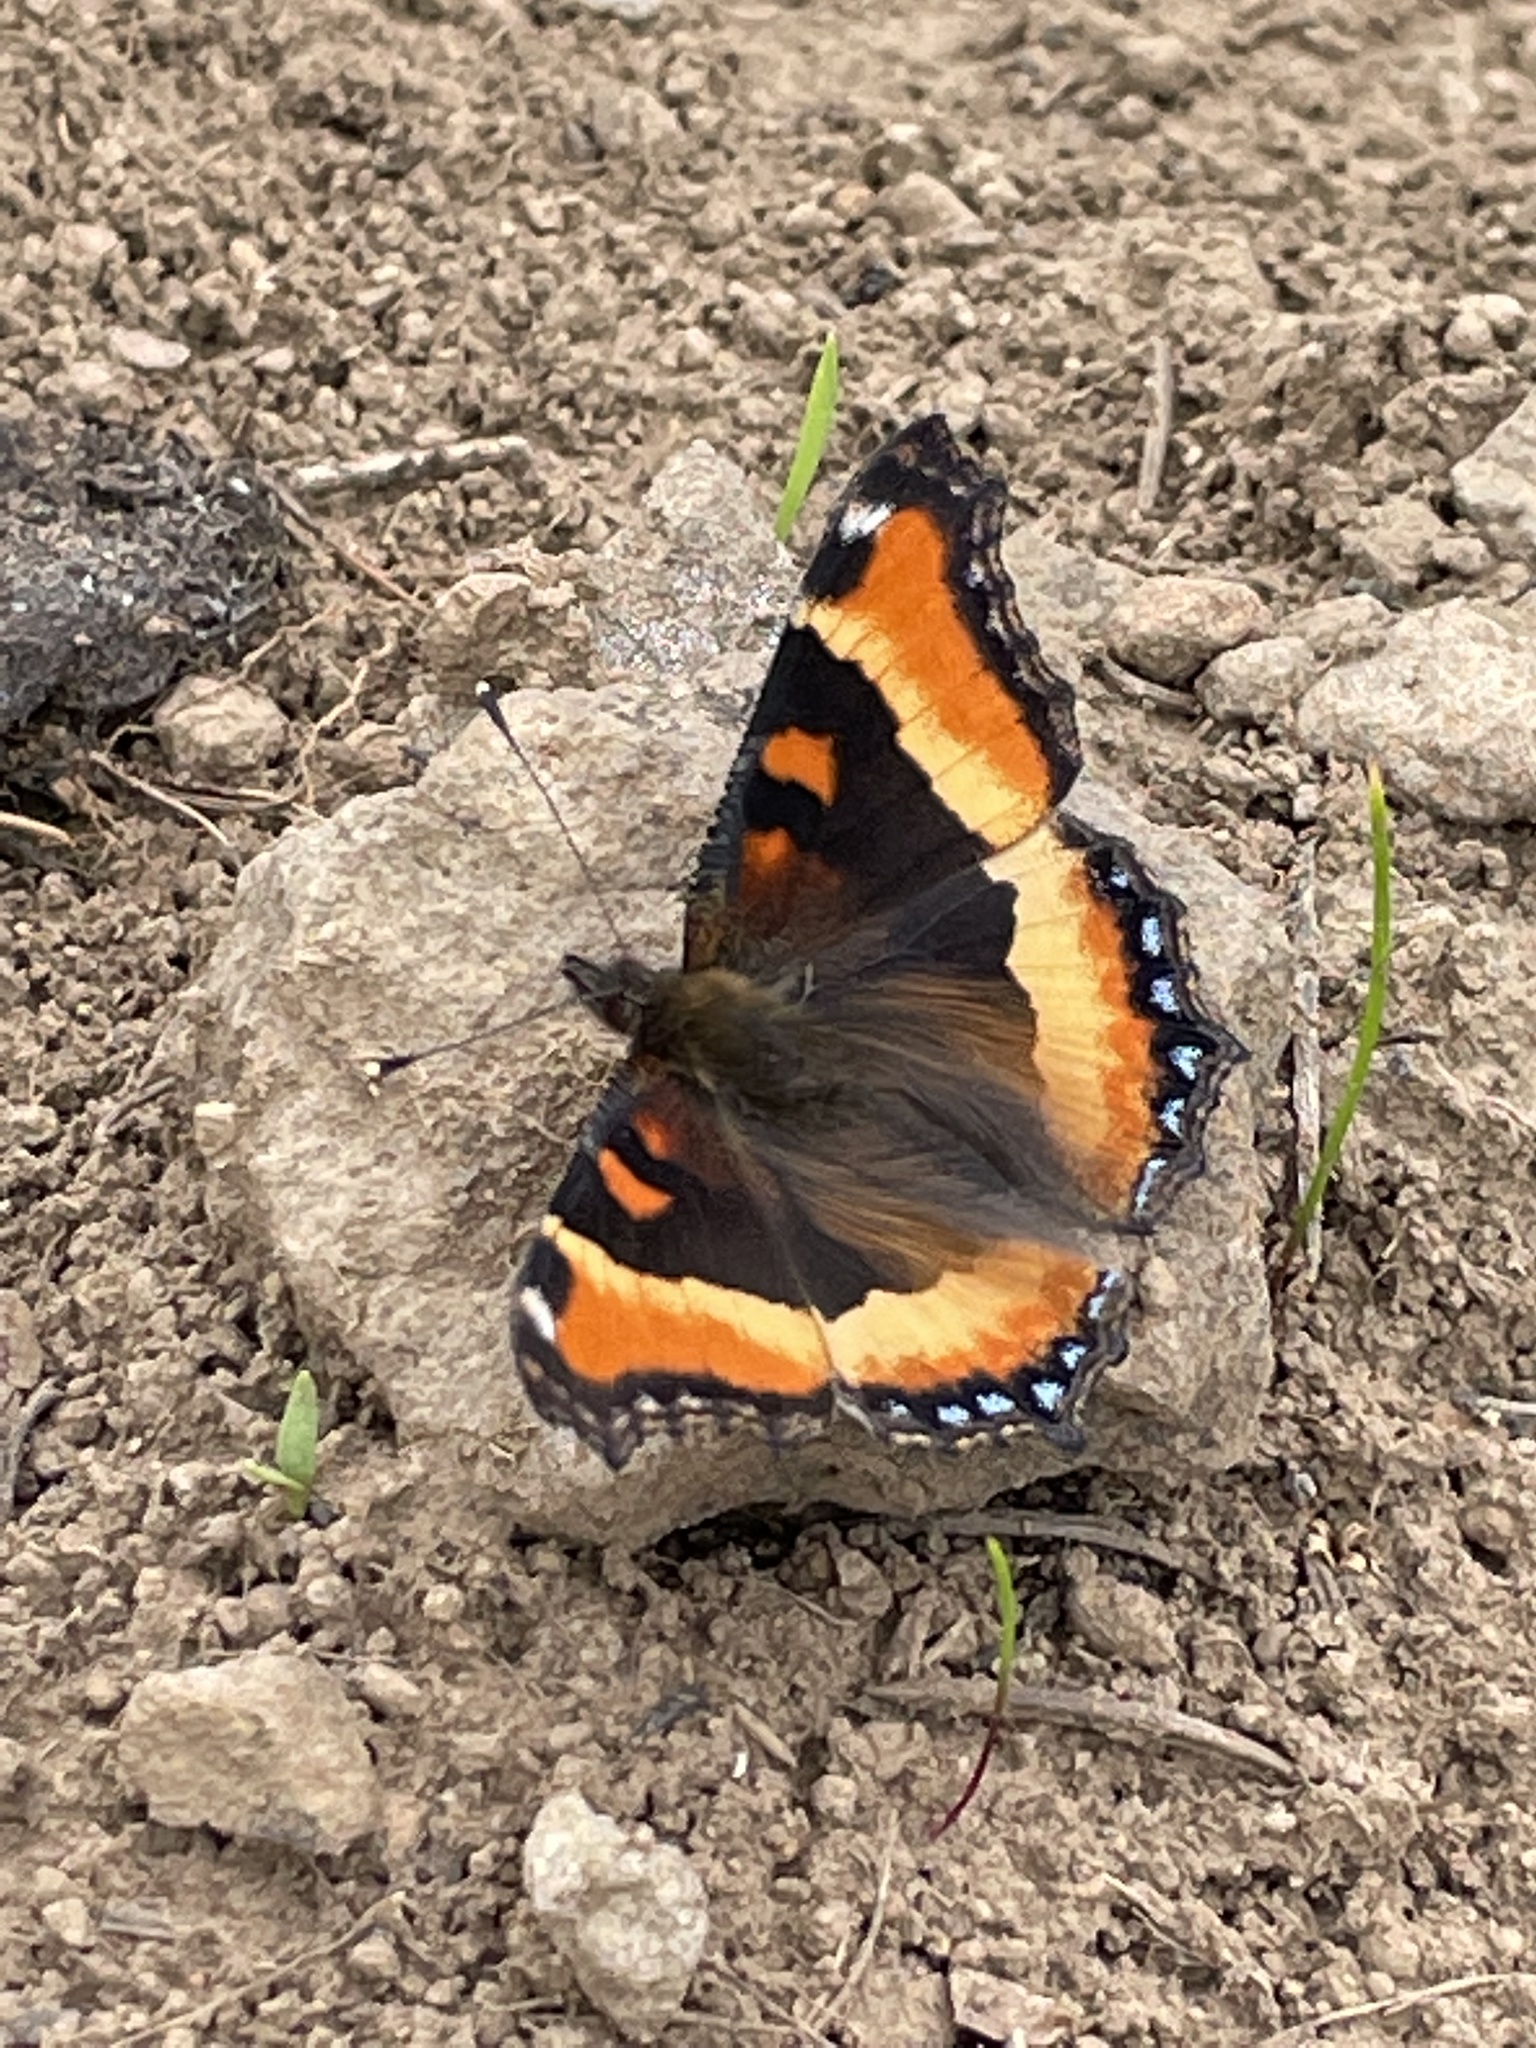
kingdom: Animalia
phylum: Arthropoda
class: Insecta
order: Lepidoptera
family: Nymphalidae
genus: Aglais
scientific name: Aglais milberti
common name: Milbert's tortoiseshell
